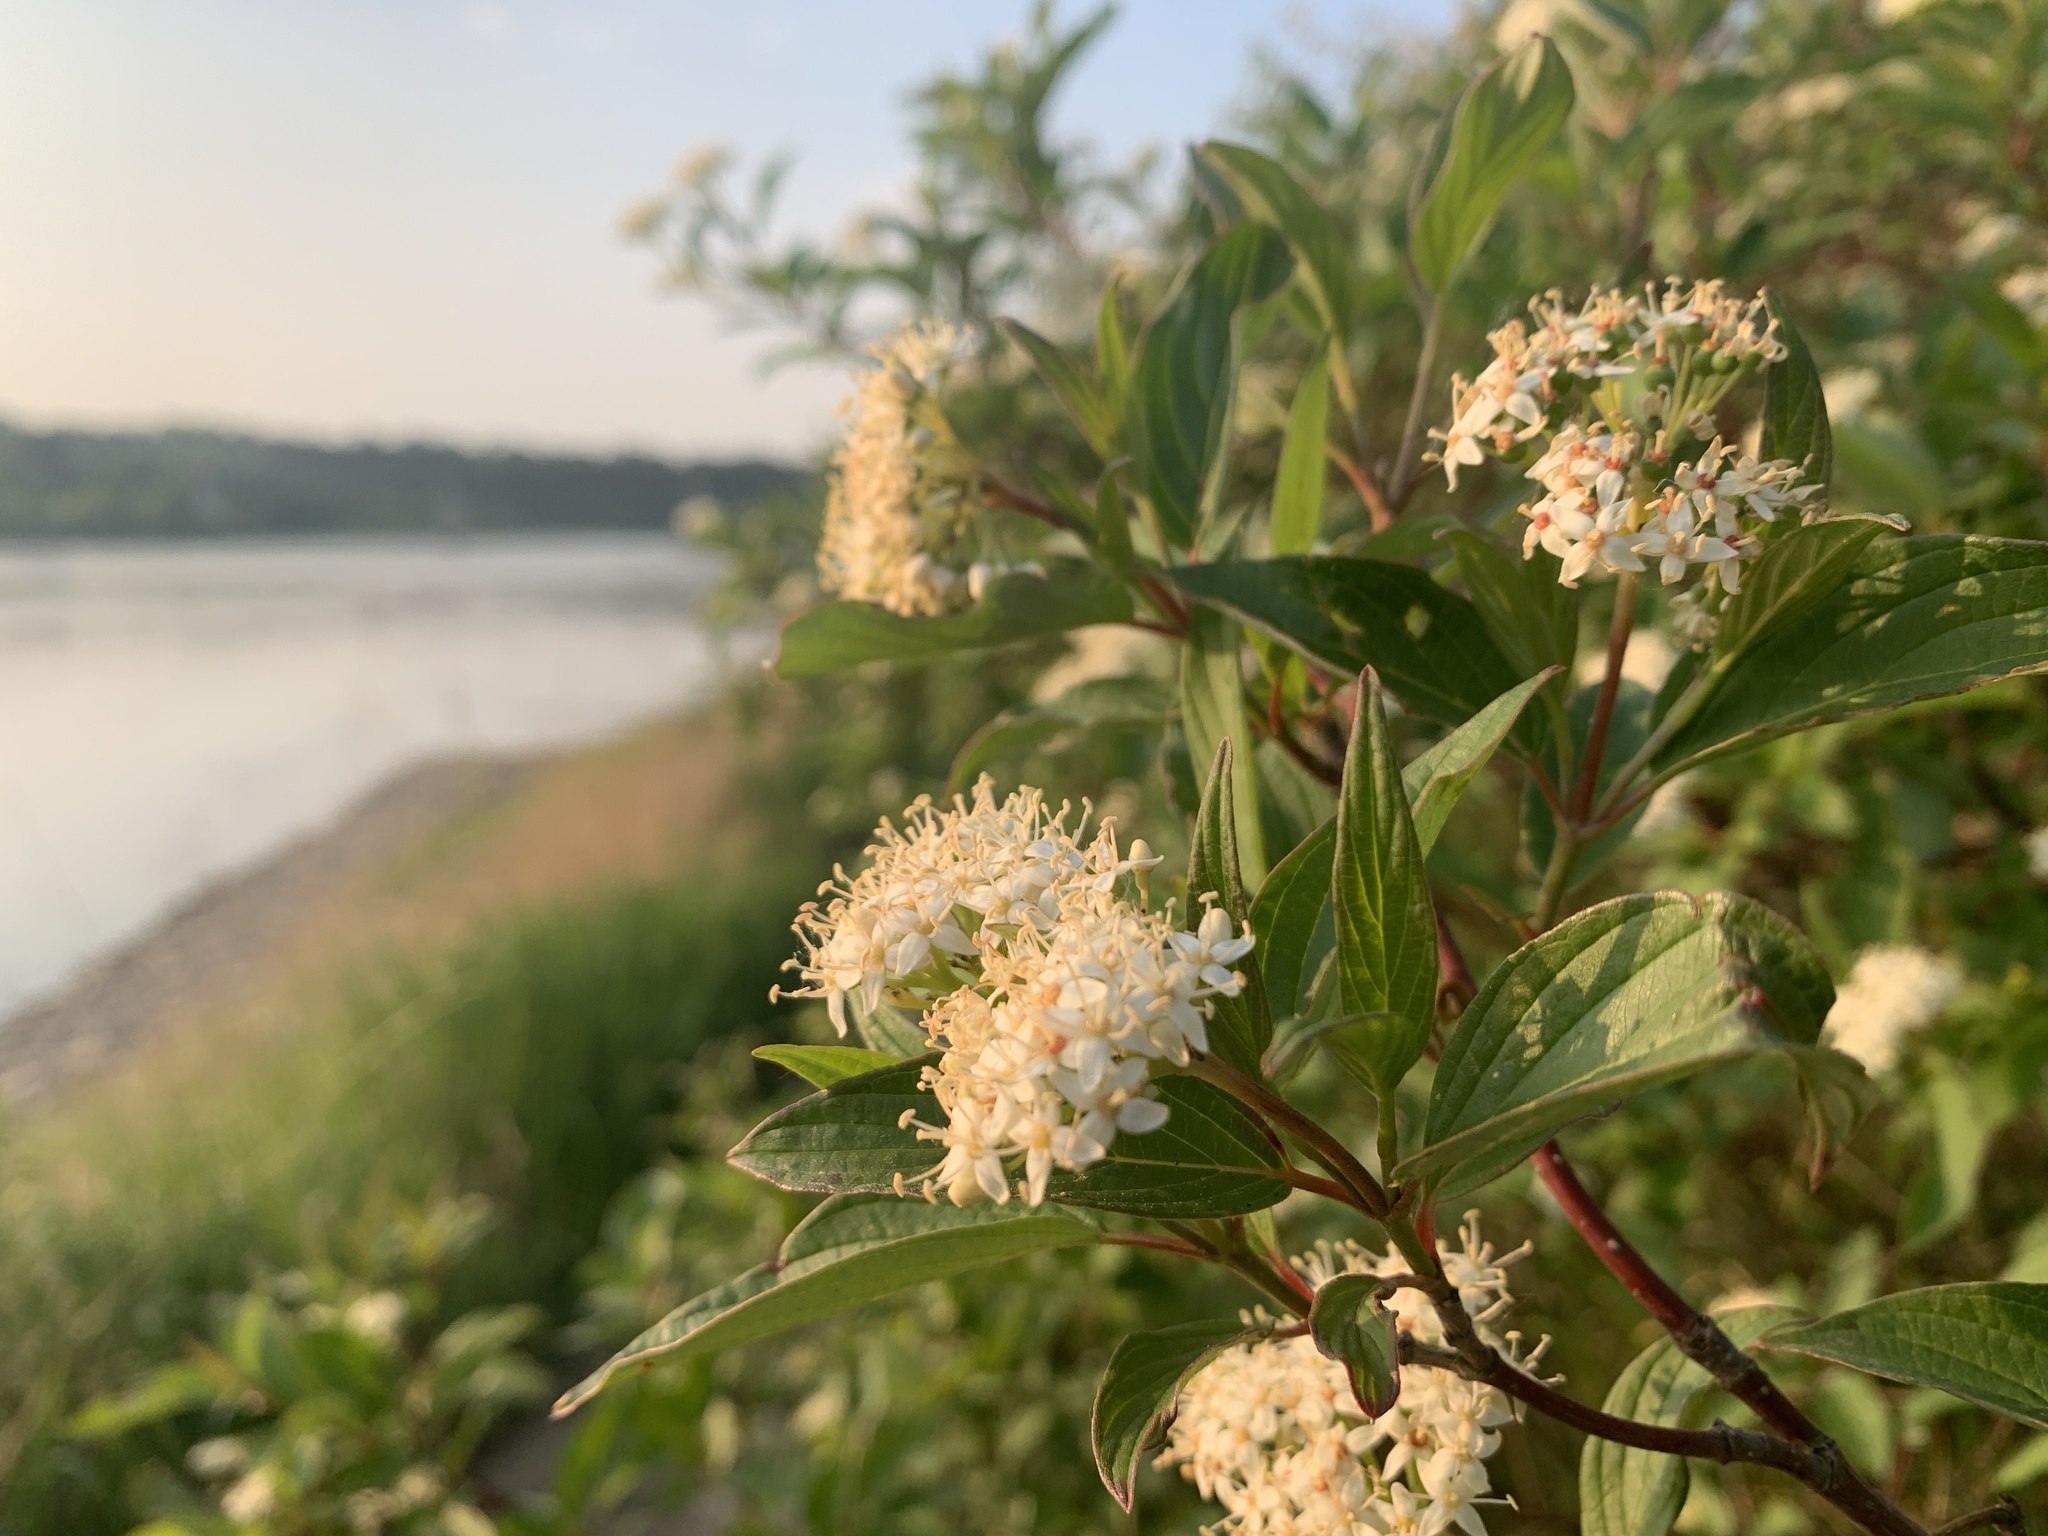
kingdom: Plantae
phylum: Tracheophyta
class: Magnoliopsida
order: Cornales
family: Cornaceae
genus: Cornus
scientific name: Cornus sericea
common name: Red-osier dogwood
